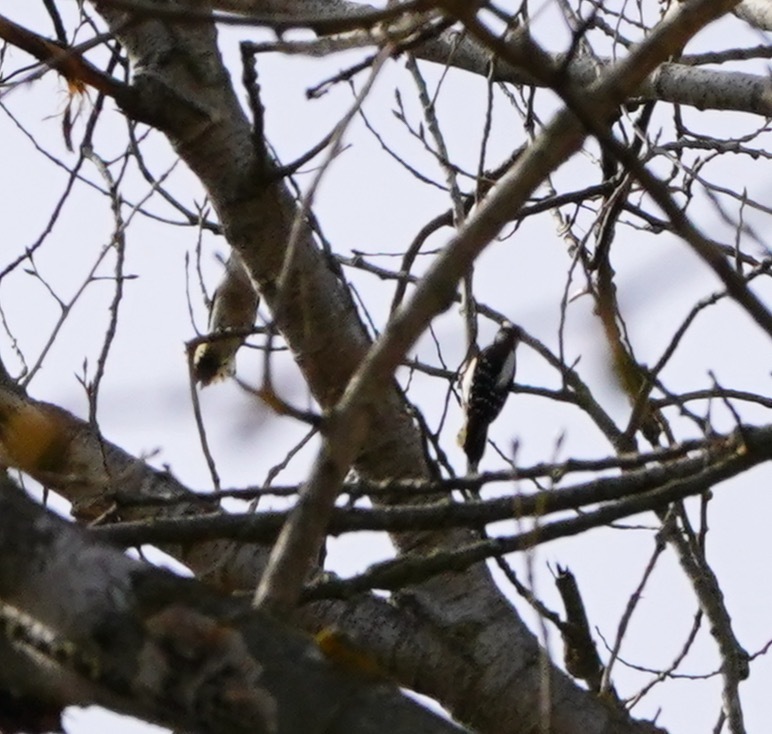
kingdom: Animalia
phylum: Chordata
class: Aves
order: Piciformes
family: Picidae
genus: Dryobates
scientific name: Dryobates pubescens
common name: Downy woodpecker
